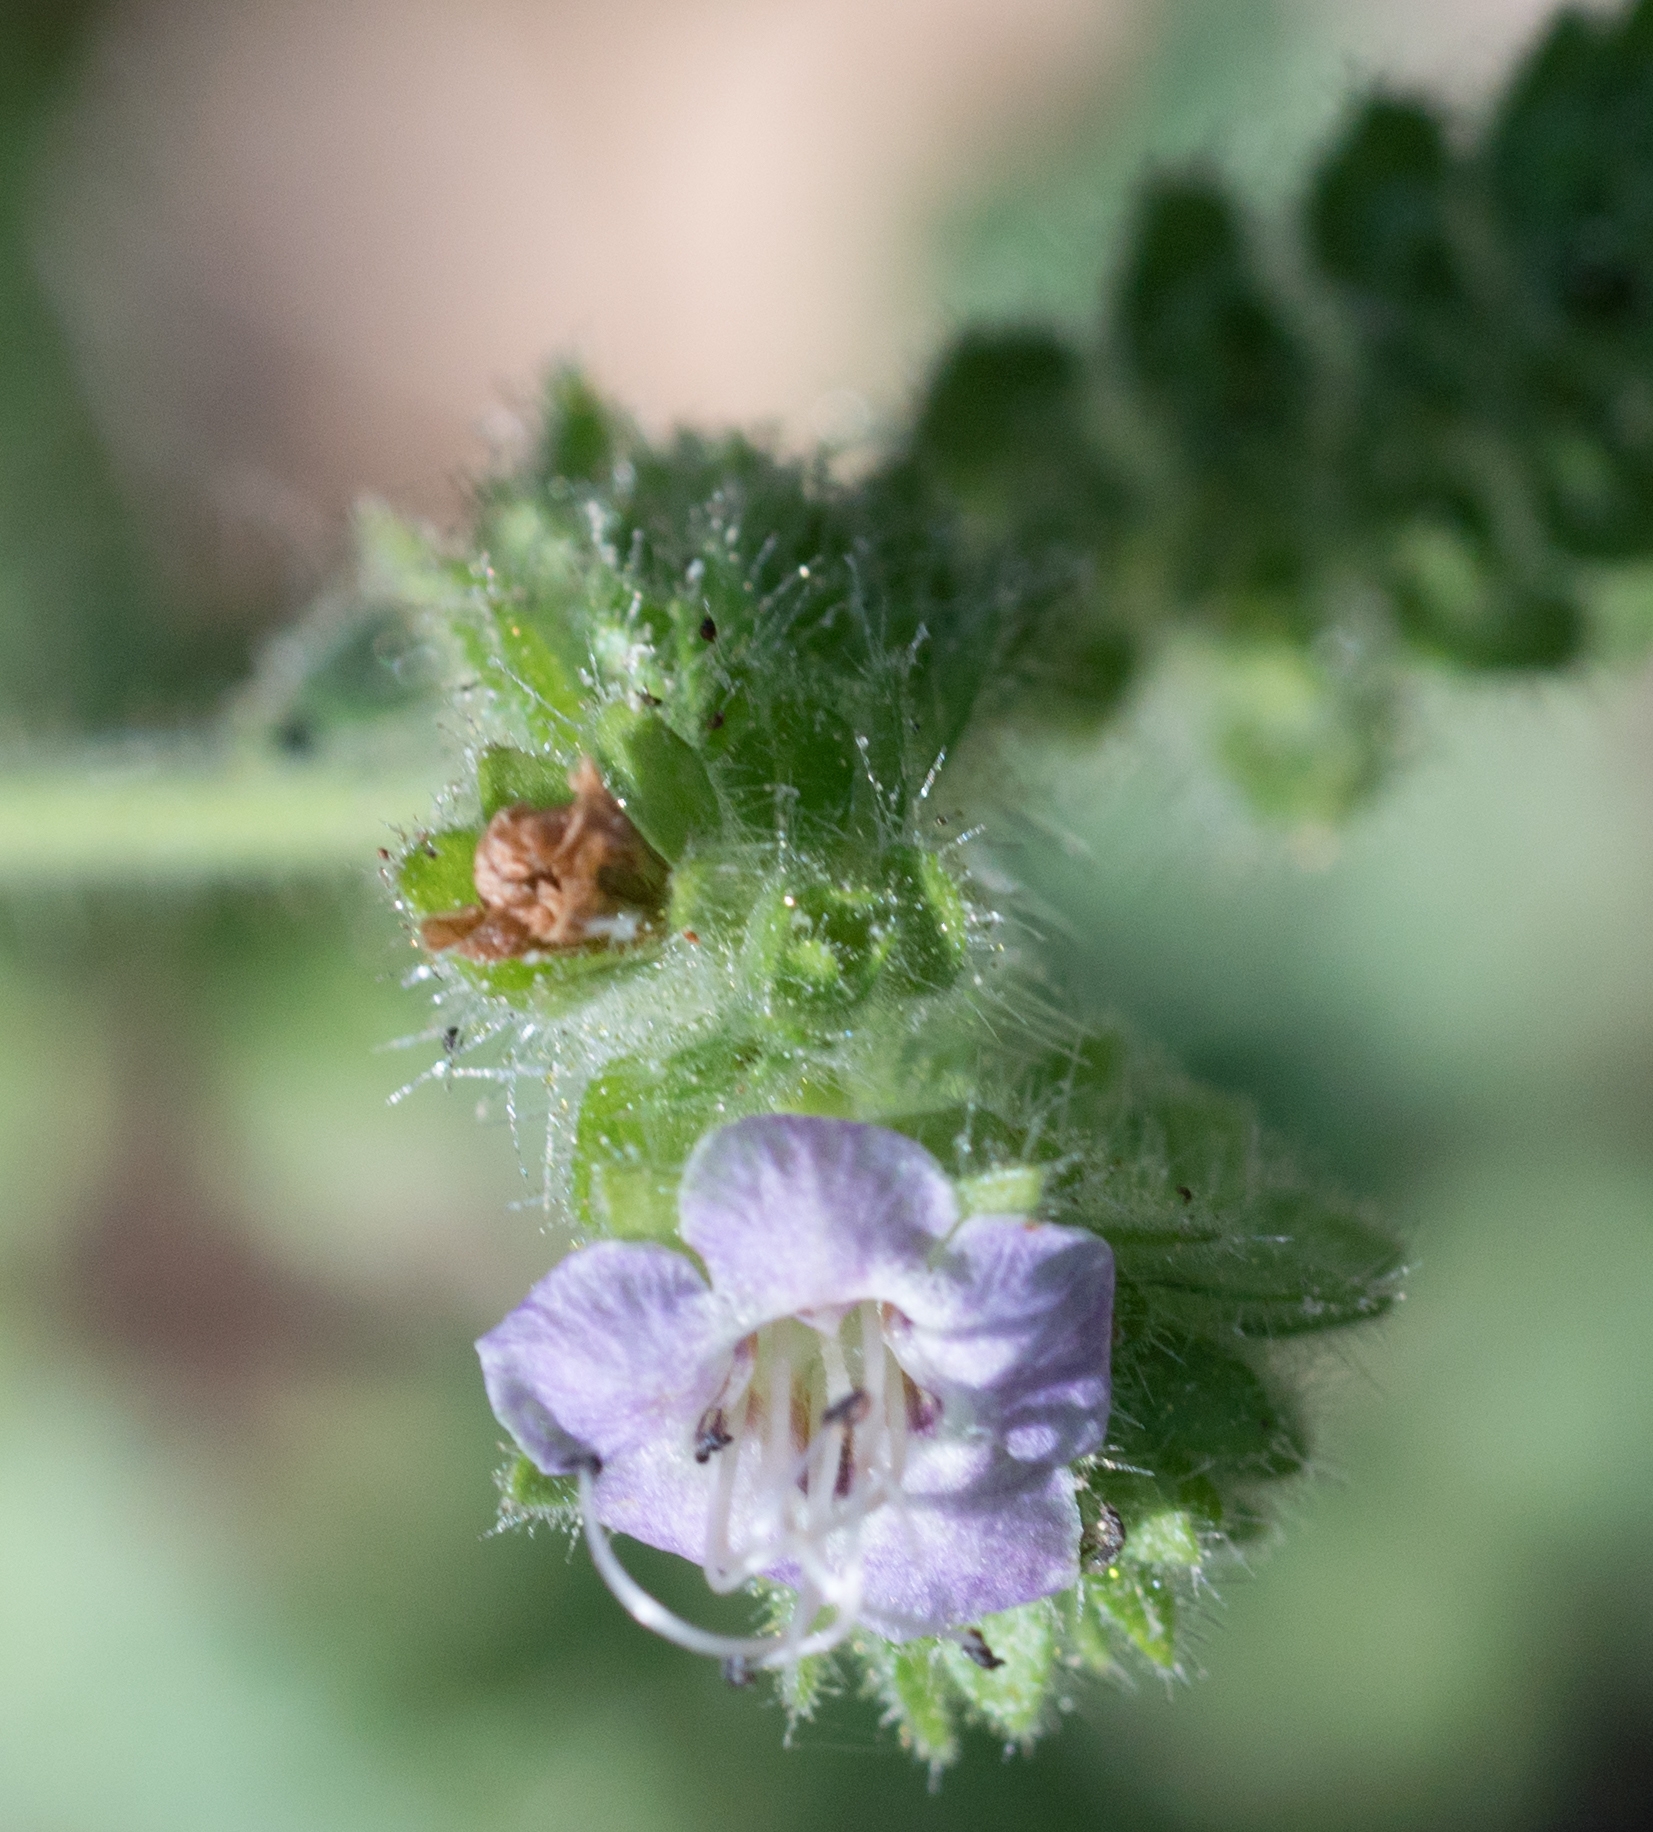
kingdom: Plantae
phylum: Tracheophyta
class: Magnoliopsida
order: Boraginales
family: Hydrophyllaceae
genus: Phacelia
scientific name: Phacelia ramosissima
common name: Branching phacelia
